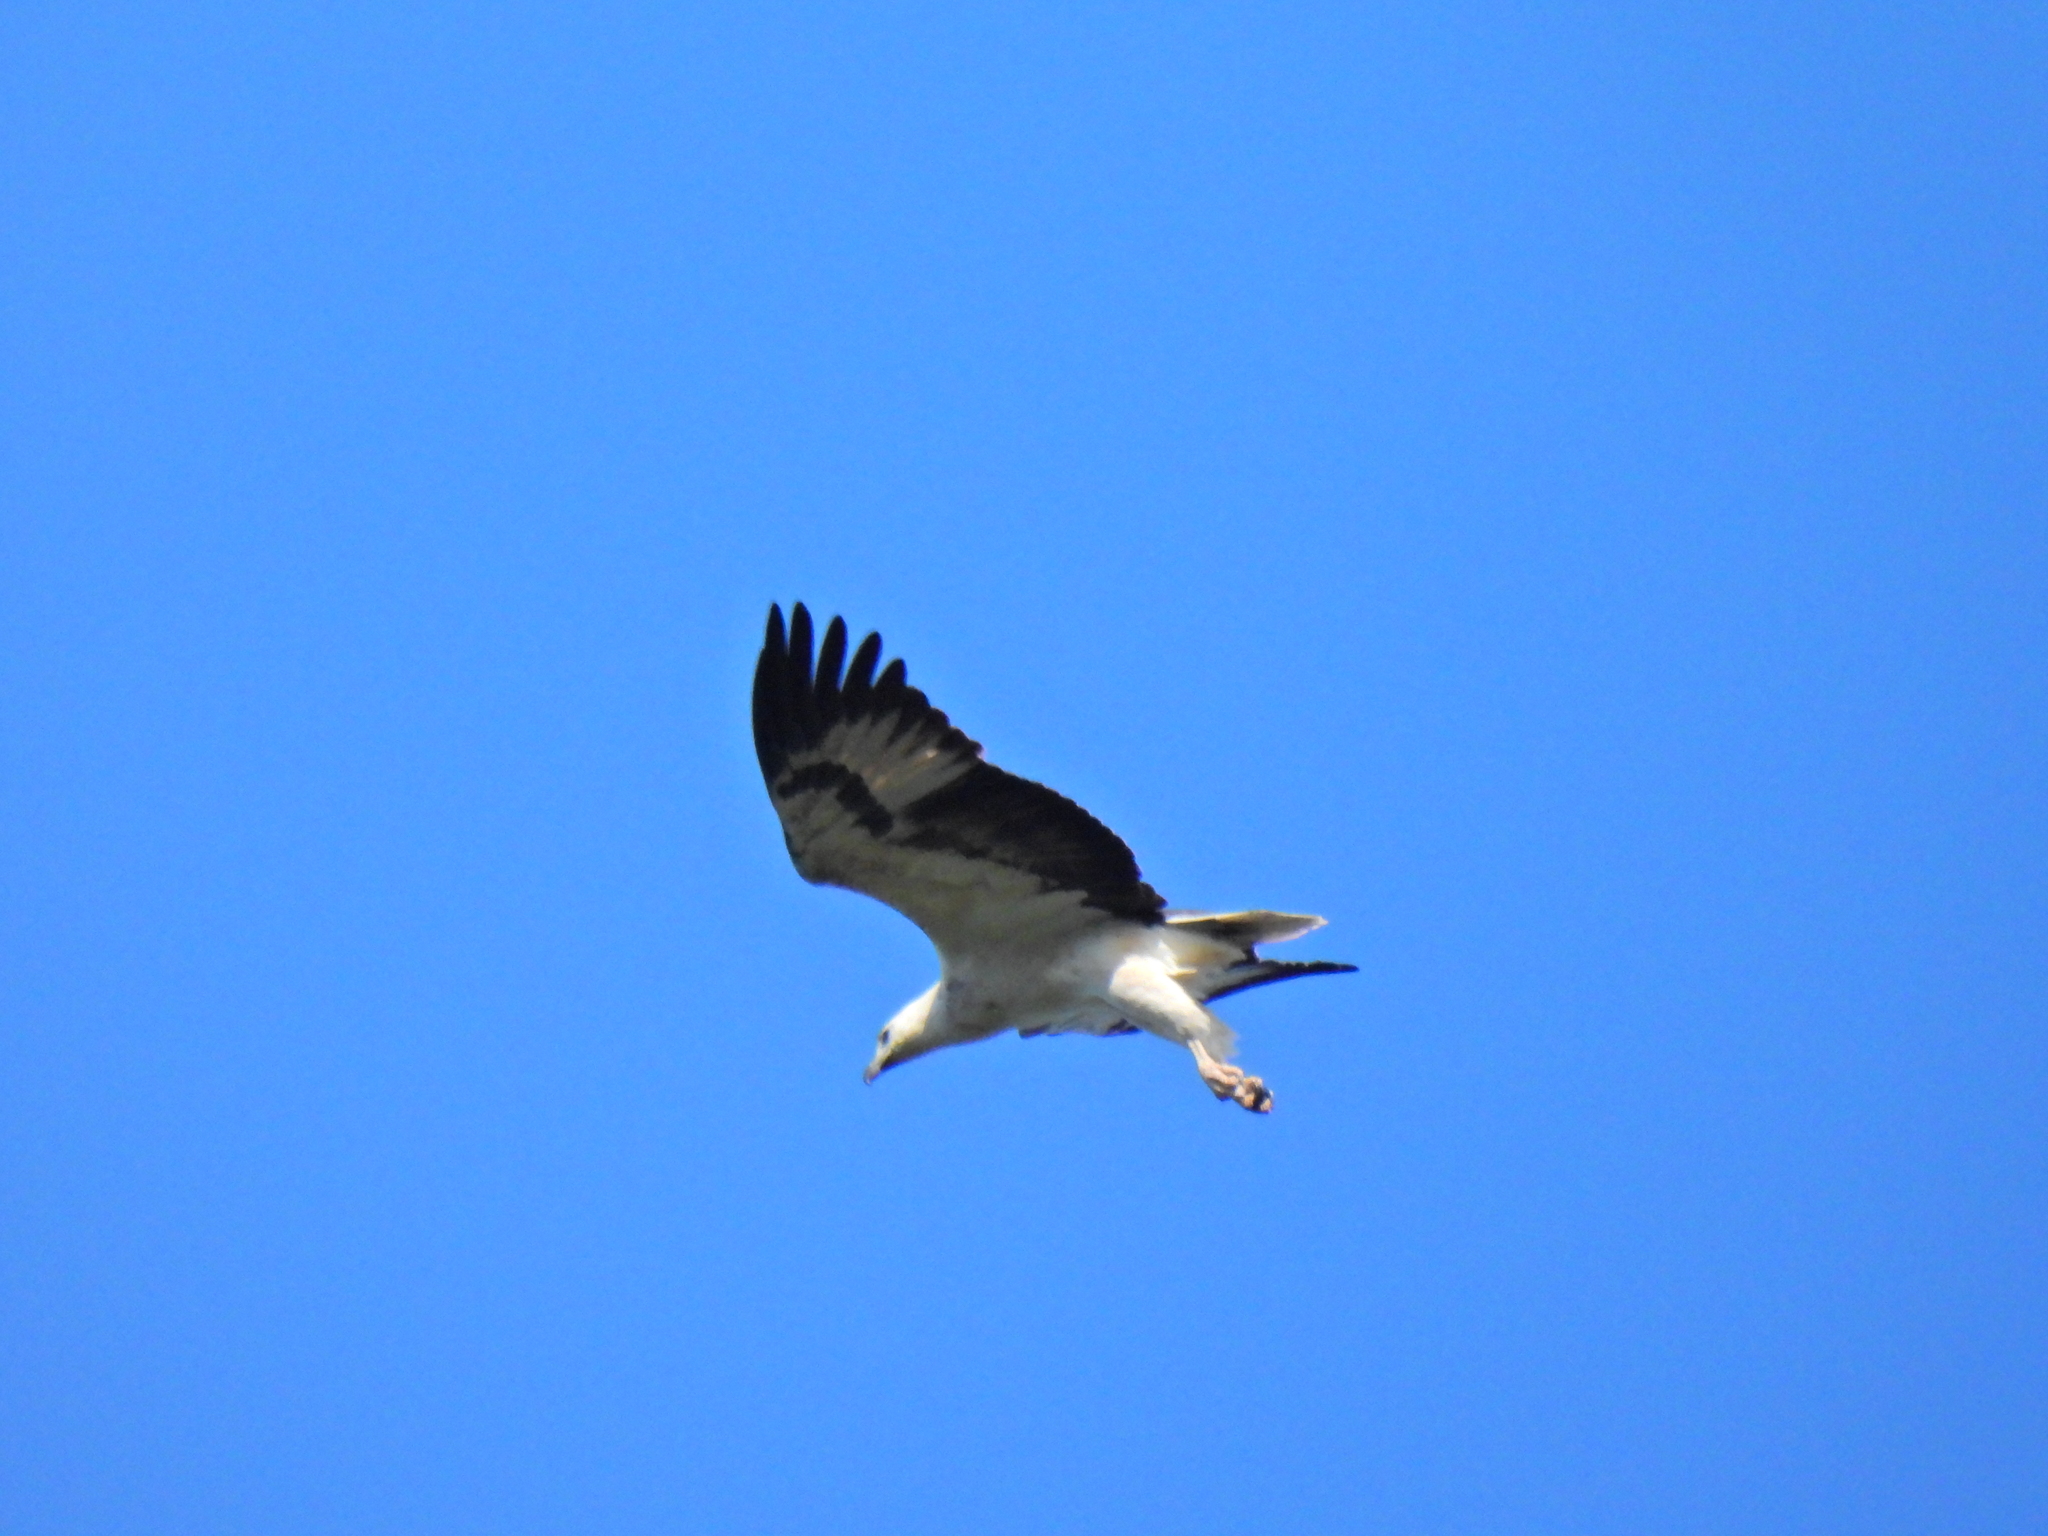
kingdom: Animalia
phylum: Chordata
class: Aves
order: Accipitriformes
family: Accipitridae
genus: Haliaeetus
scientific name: Haliaeetus leucogaster
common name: White-bellied sea eagle
